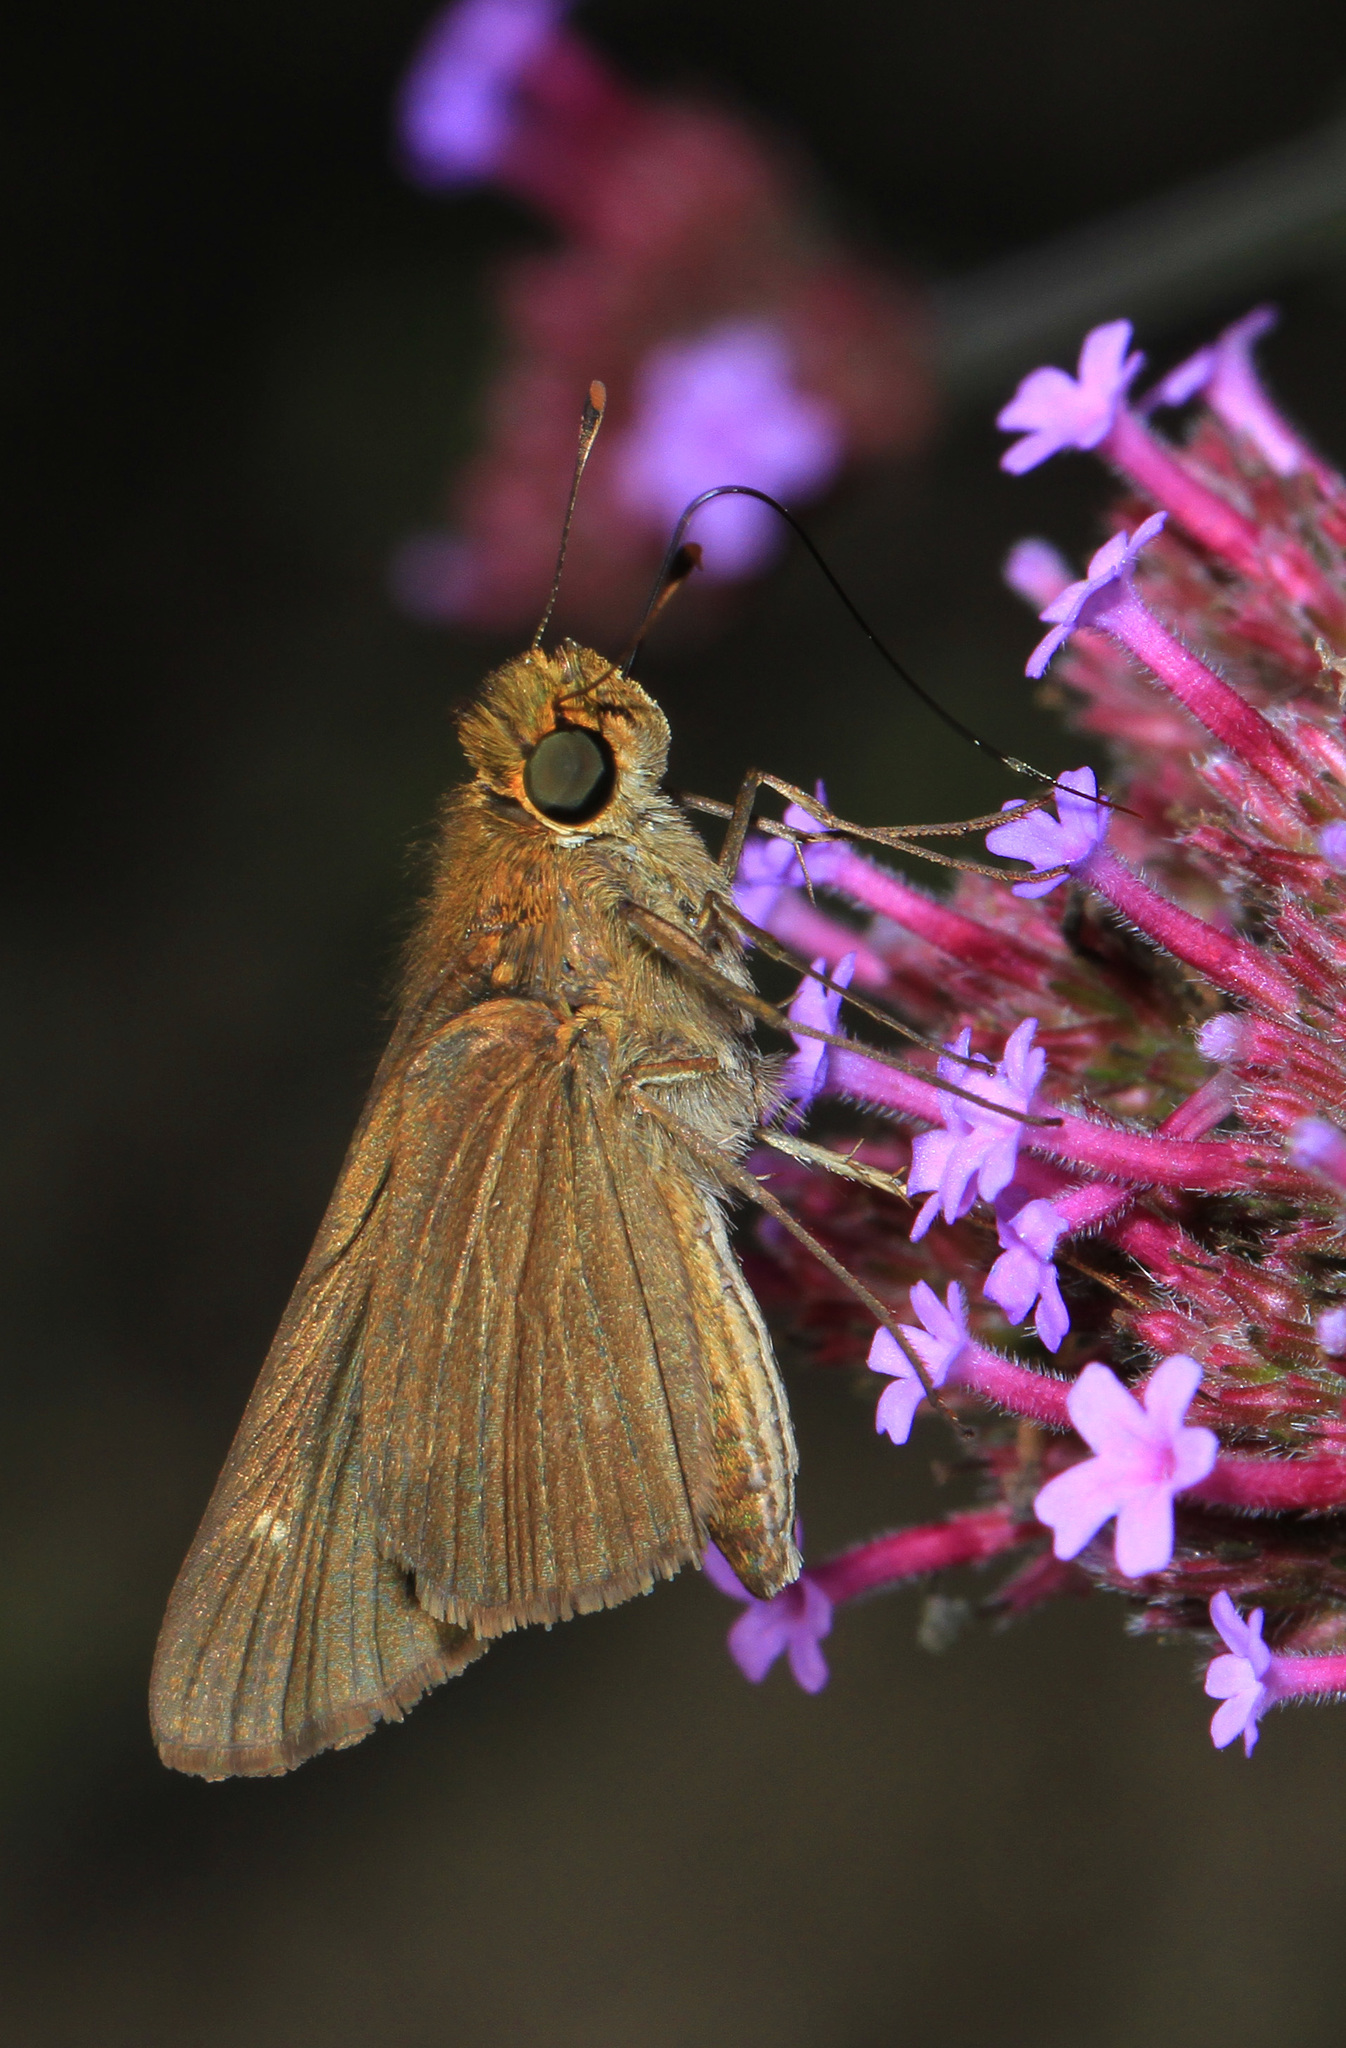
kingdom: Animalia
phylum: Arthropoda
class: Insecta
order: Lepidoptera
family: Hesperiidae
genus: Panoquina
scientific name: Panoquina ocola
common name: Ocola skipper
